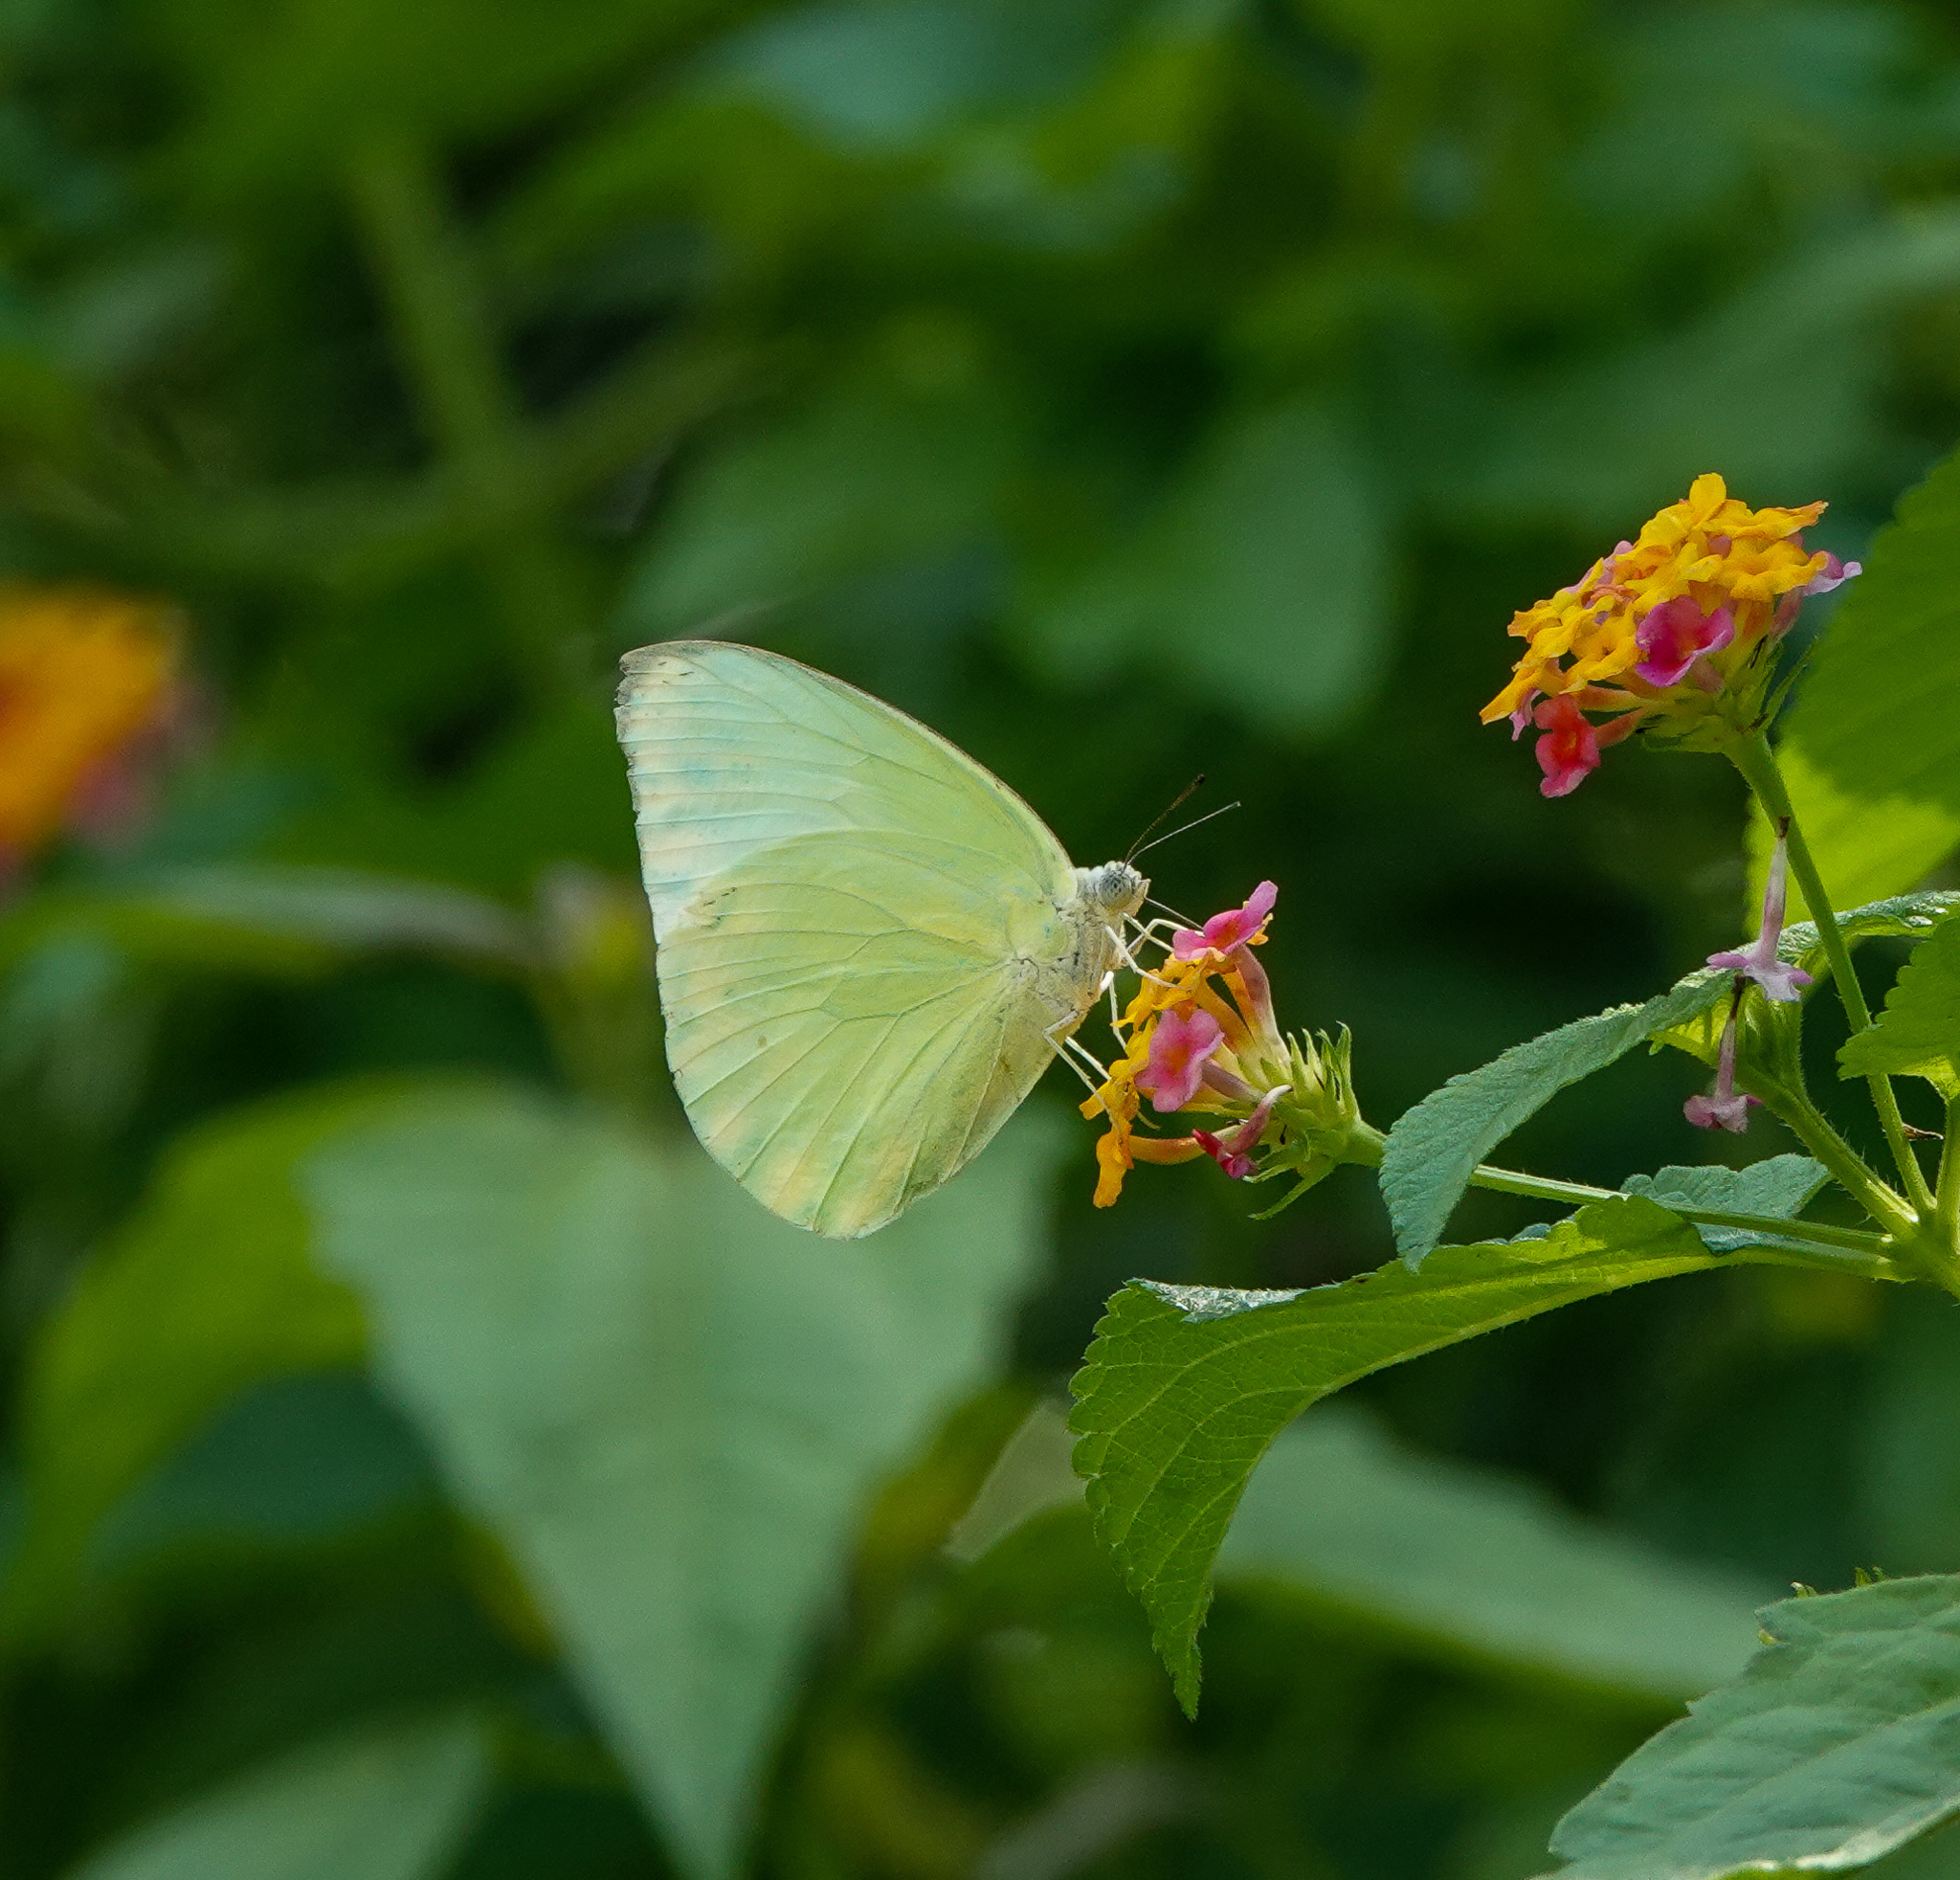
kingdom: Animalia
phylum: Arthropoda
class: Insecta
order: Lepidoptera
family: Pieridae
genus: Catopsilia
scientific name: Catopsilia pomona
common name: Common emigrant
